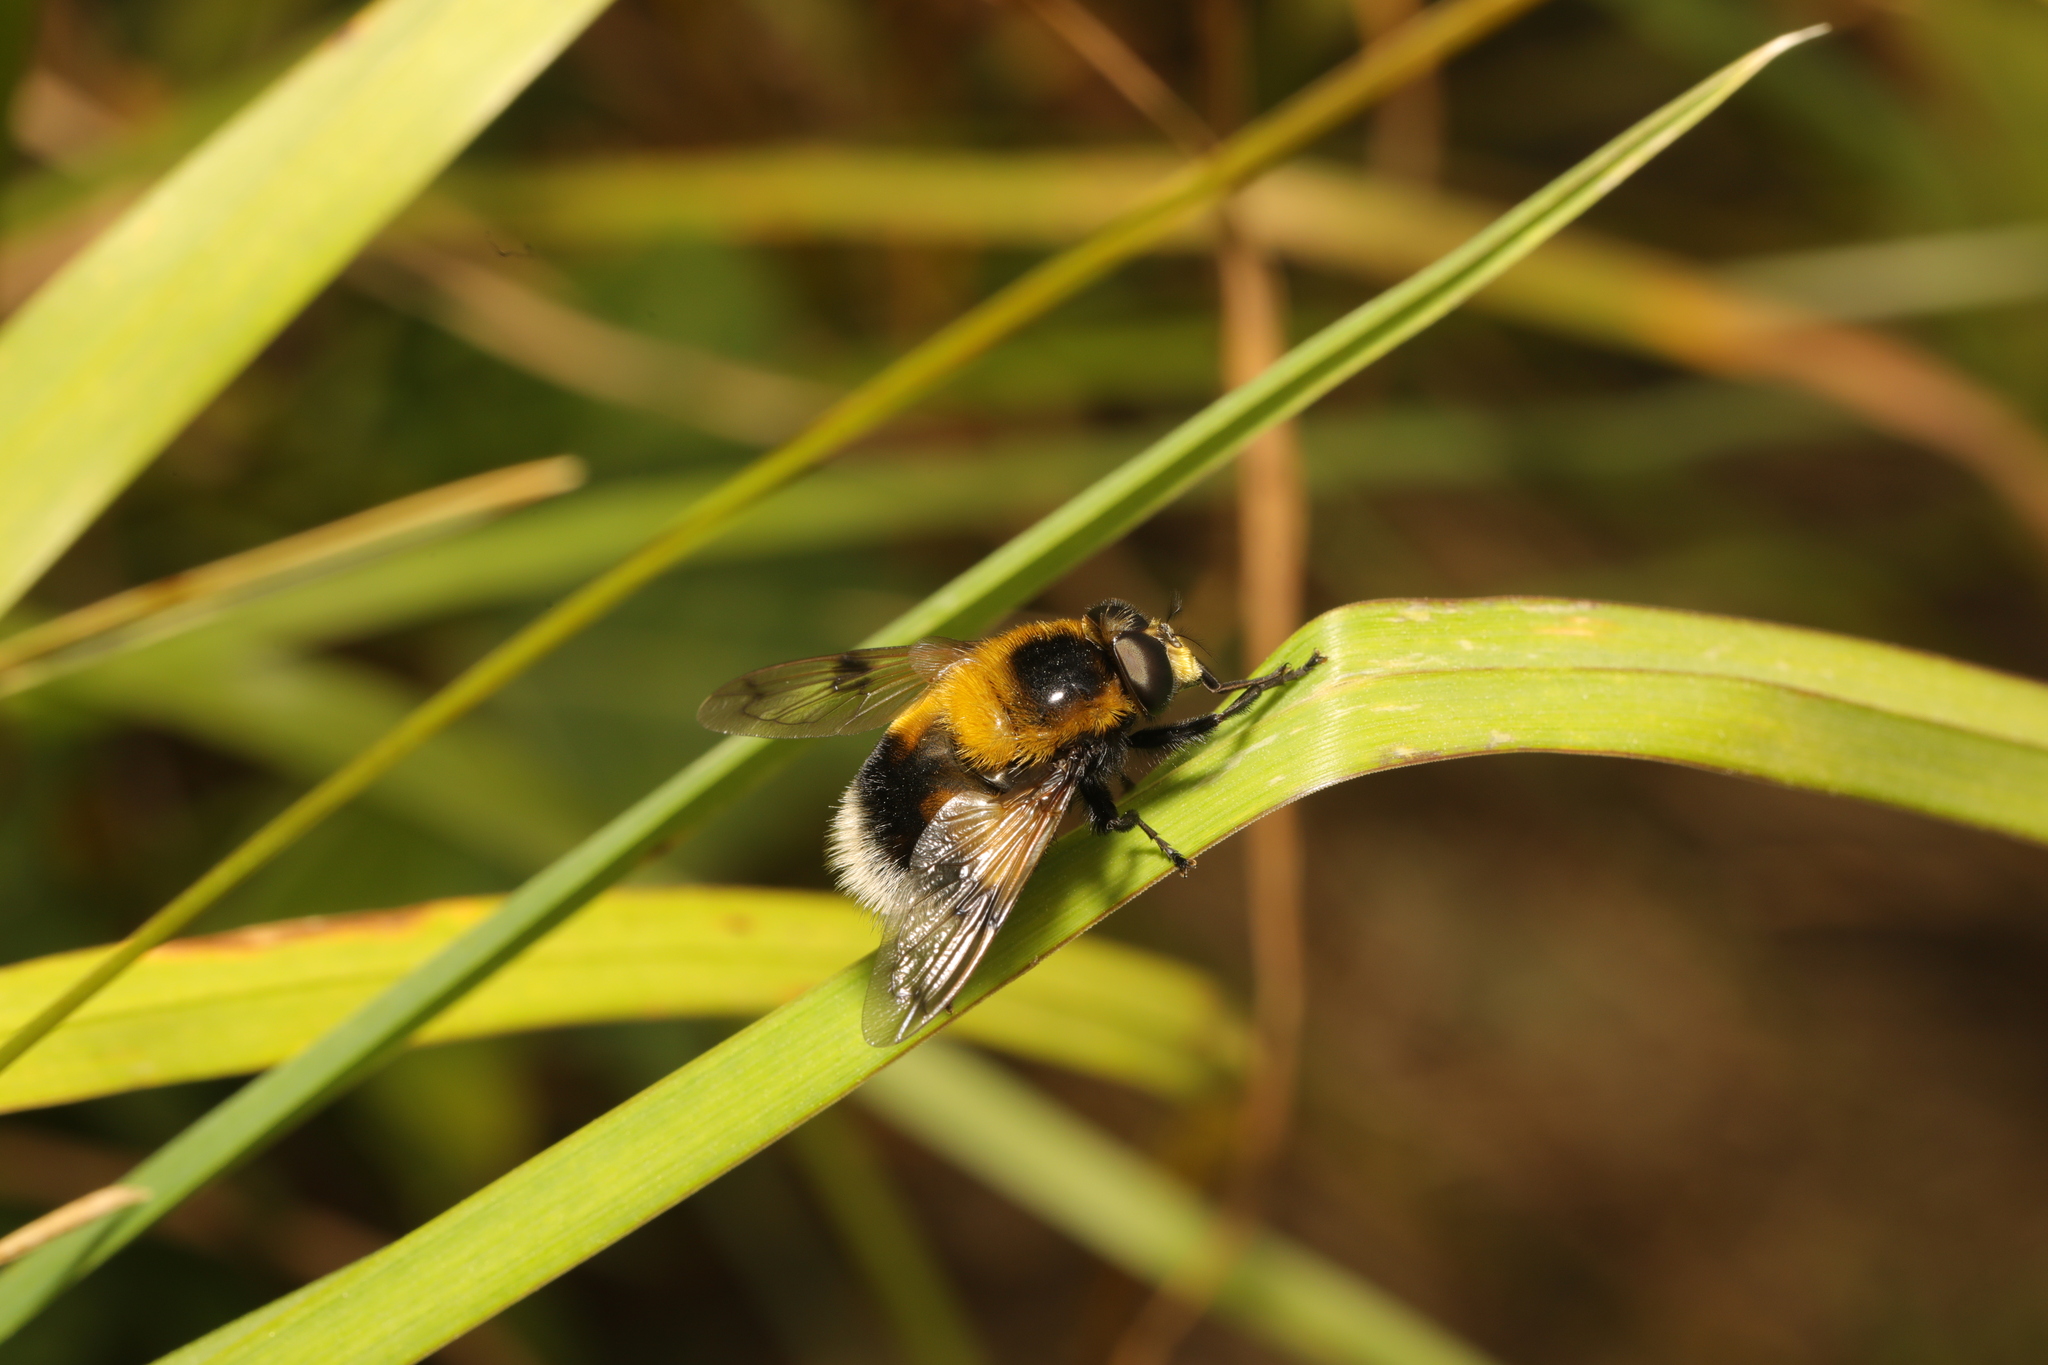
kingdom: Animalia
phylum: Arthropoda
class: Insecta
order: Diptera
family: Syrphidae
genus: Volucella
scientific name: Volucella bombylans
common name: Bumble bee hover fly
